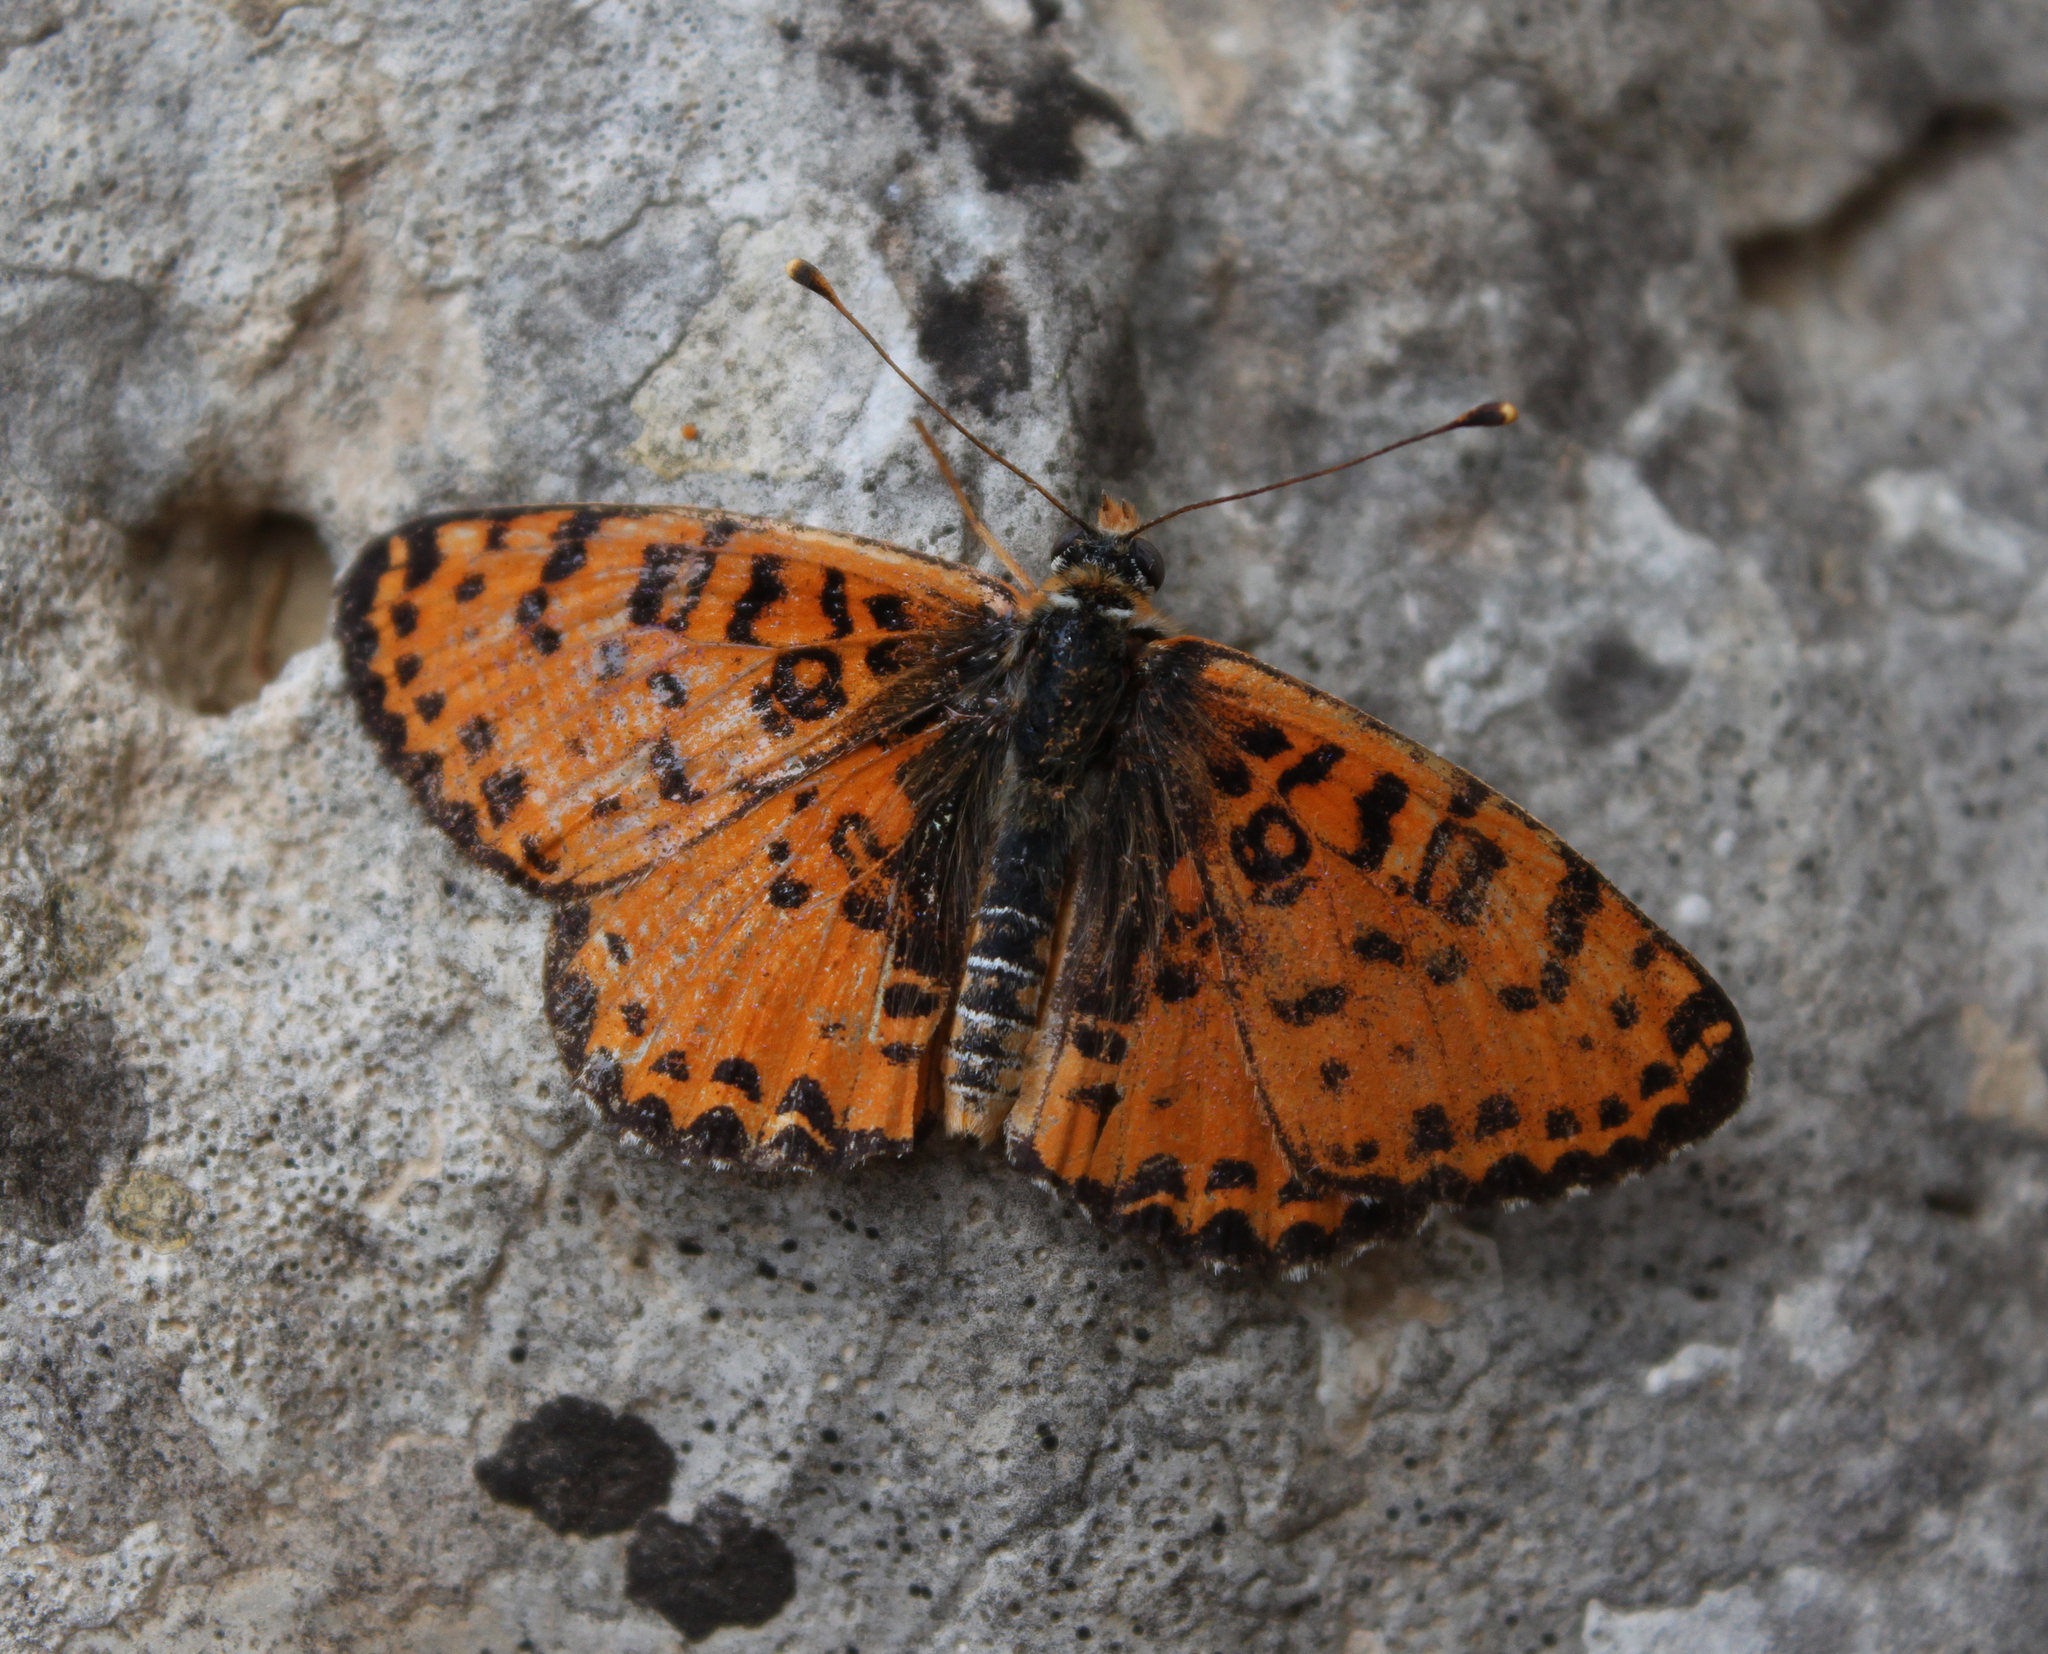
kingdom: Animalia
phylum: Arthropoda
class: Insecta
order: Lepidoptera
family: Nymphalidae
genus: Melitaea
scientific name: Melitaea didyma
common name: Spotted fritillary
